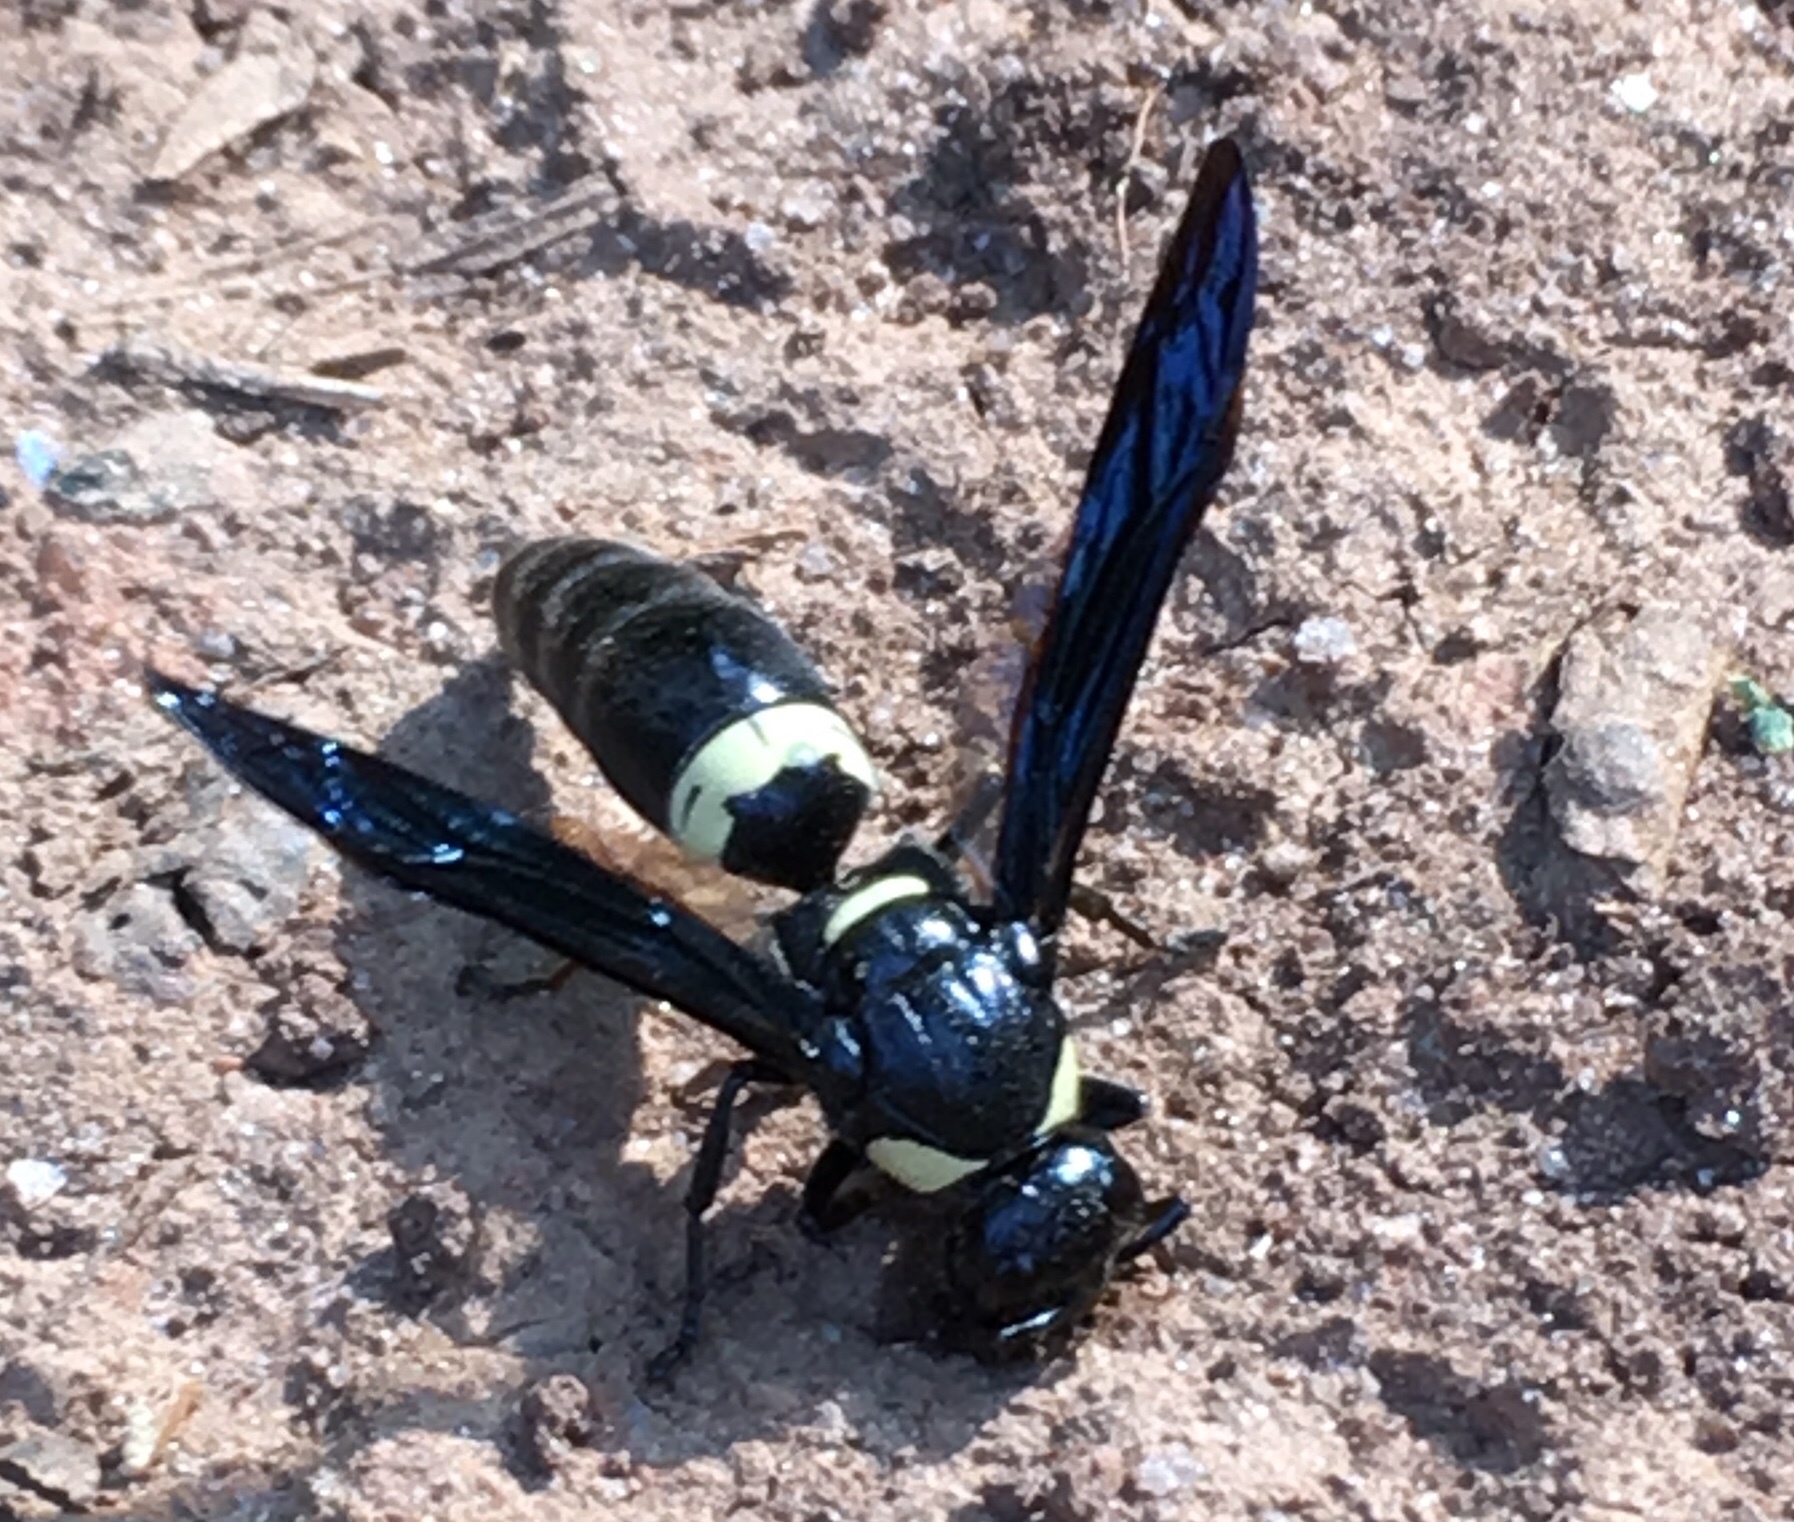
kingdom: Animalia
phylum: Arthropoda
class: Insecta
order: Hymenoptera
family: Eumenidae
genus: Monobia
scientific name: Monobia quadridens
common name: Four-toothed mason wasp
